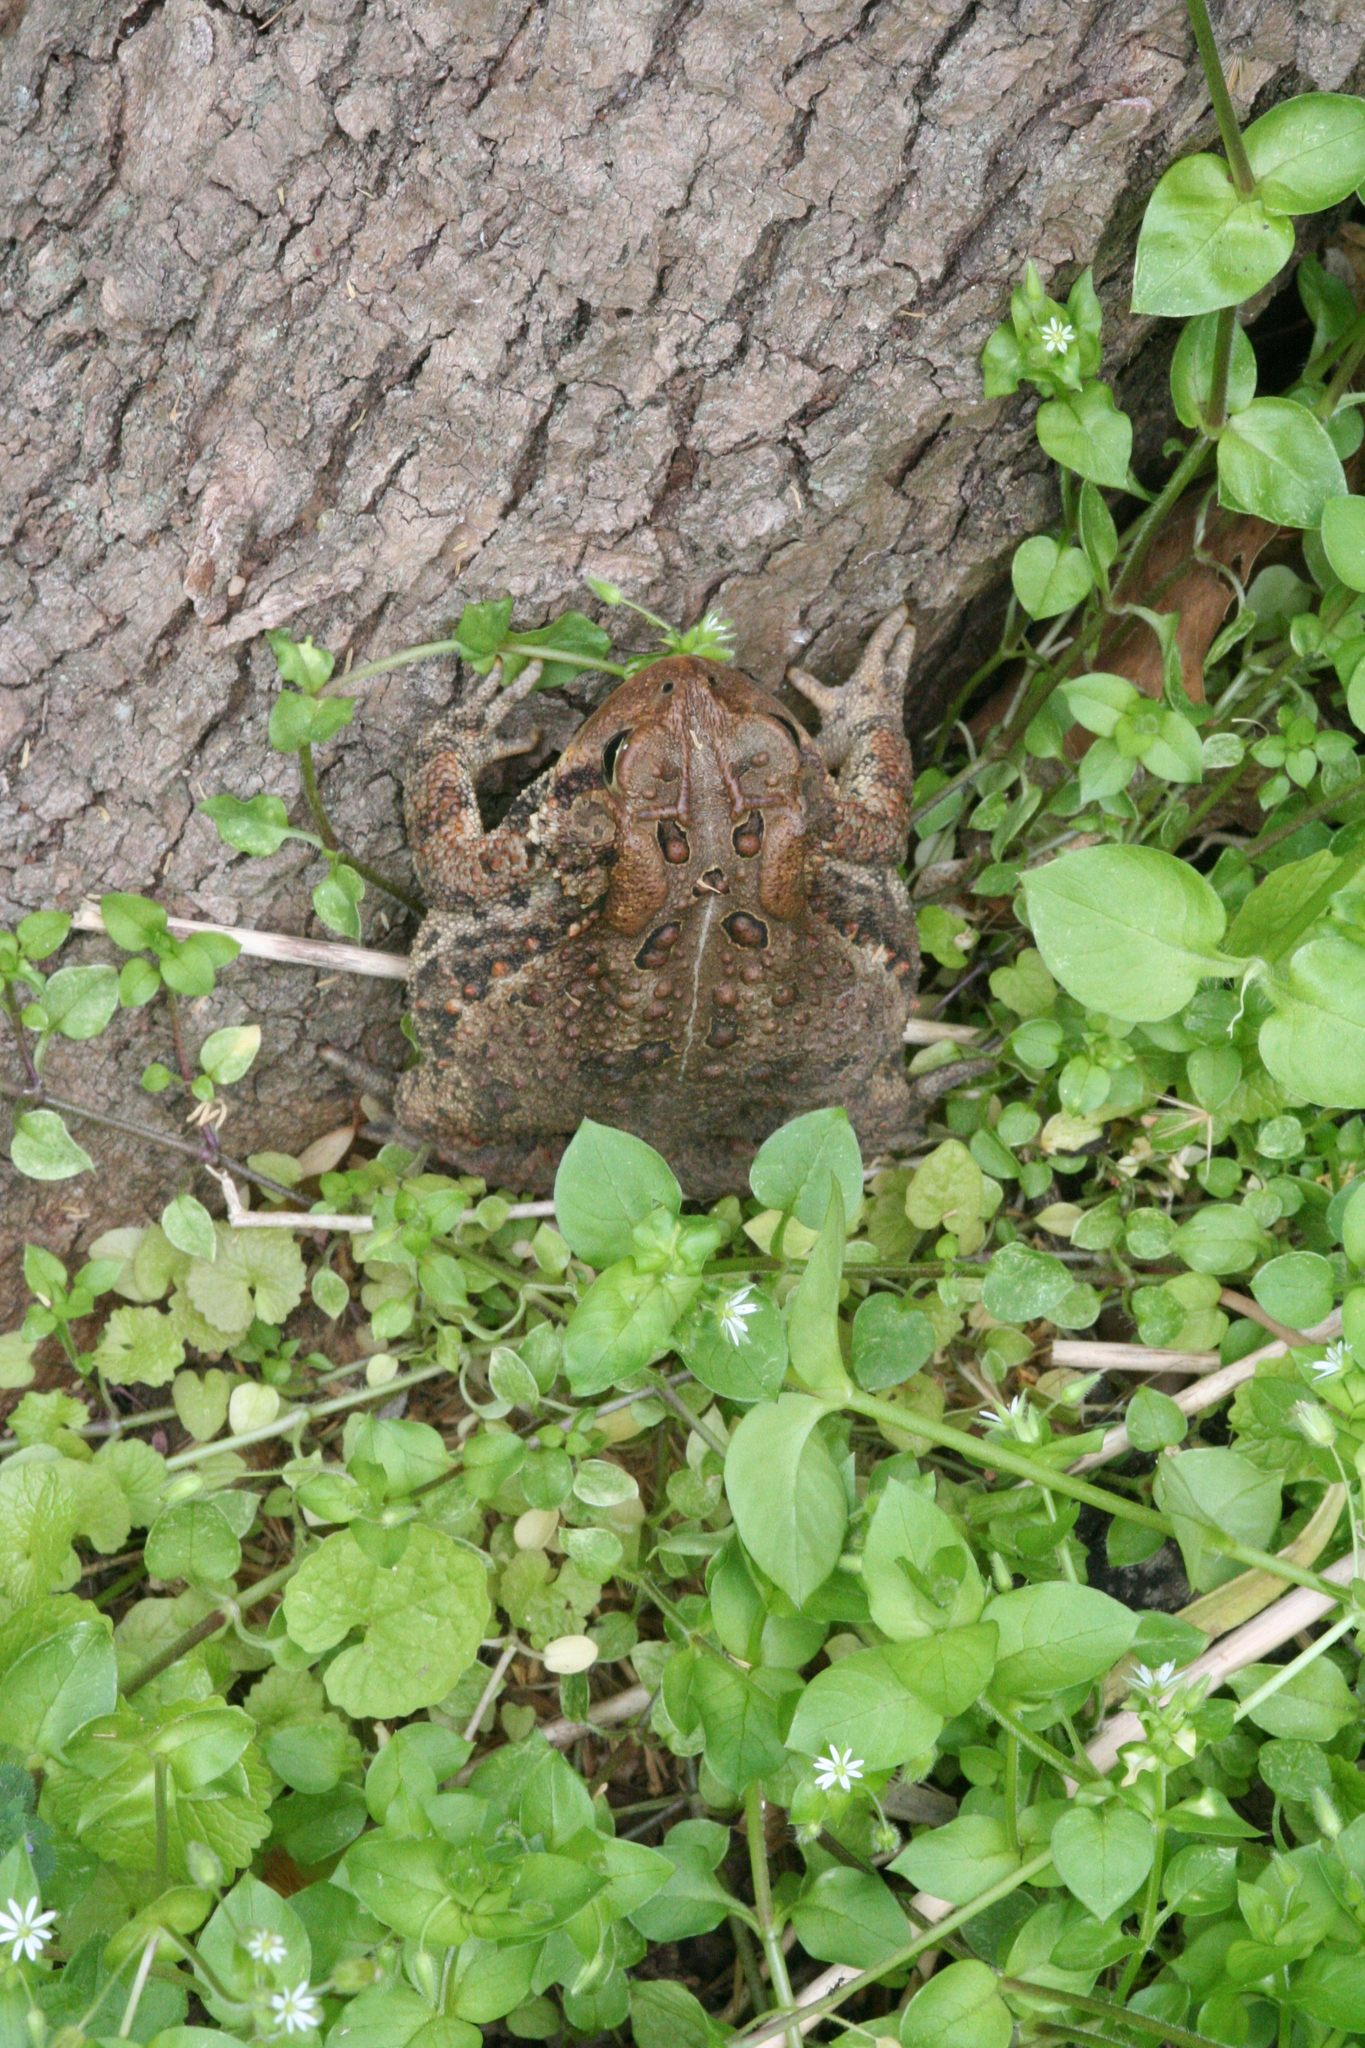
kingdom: Animalia
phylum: Chordata
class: Amphibia
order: Anura
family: Bufonidae
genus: Anaxyrus
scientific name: Anaxyrus americanus
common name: American toad
